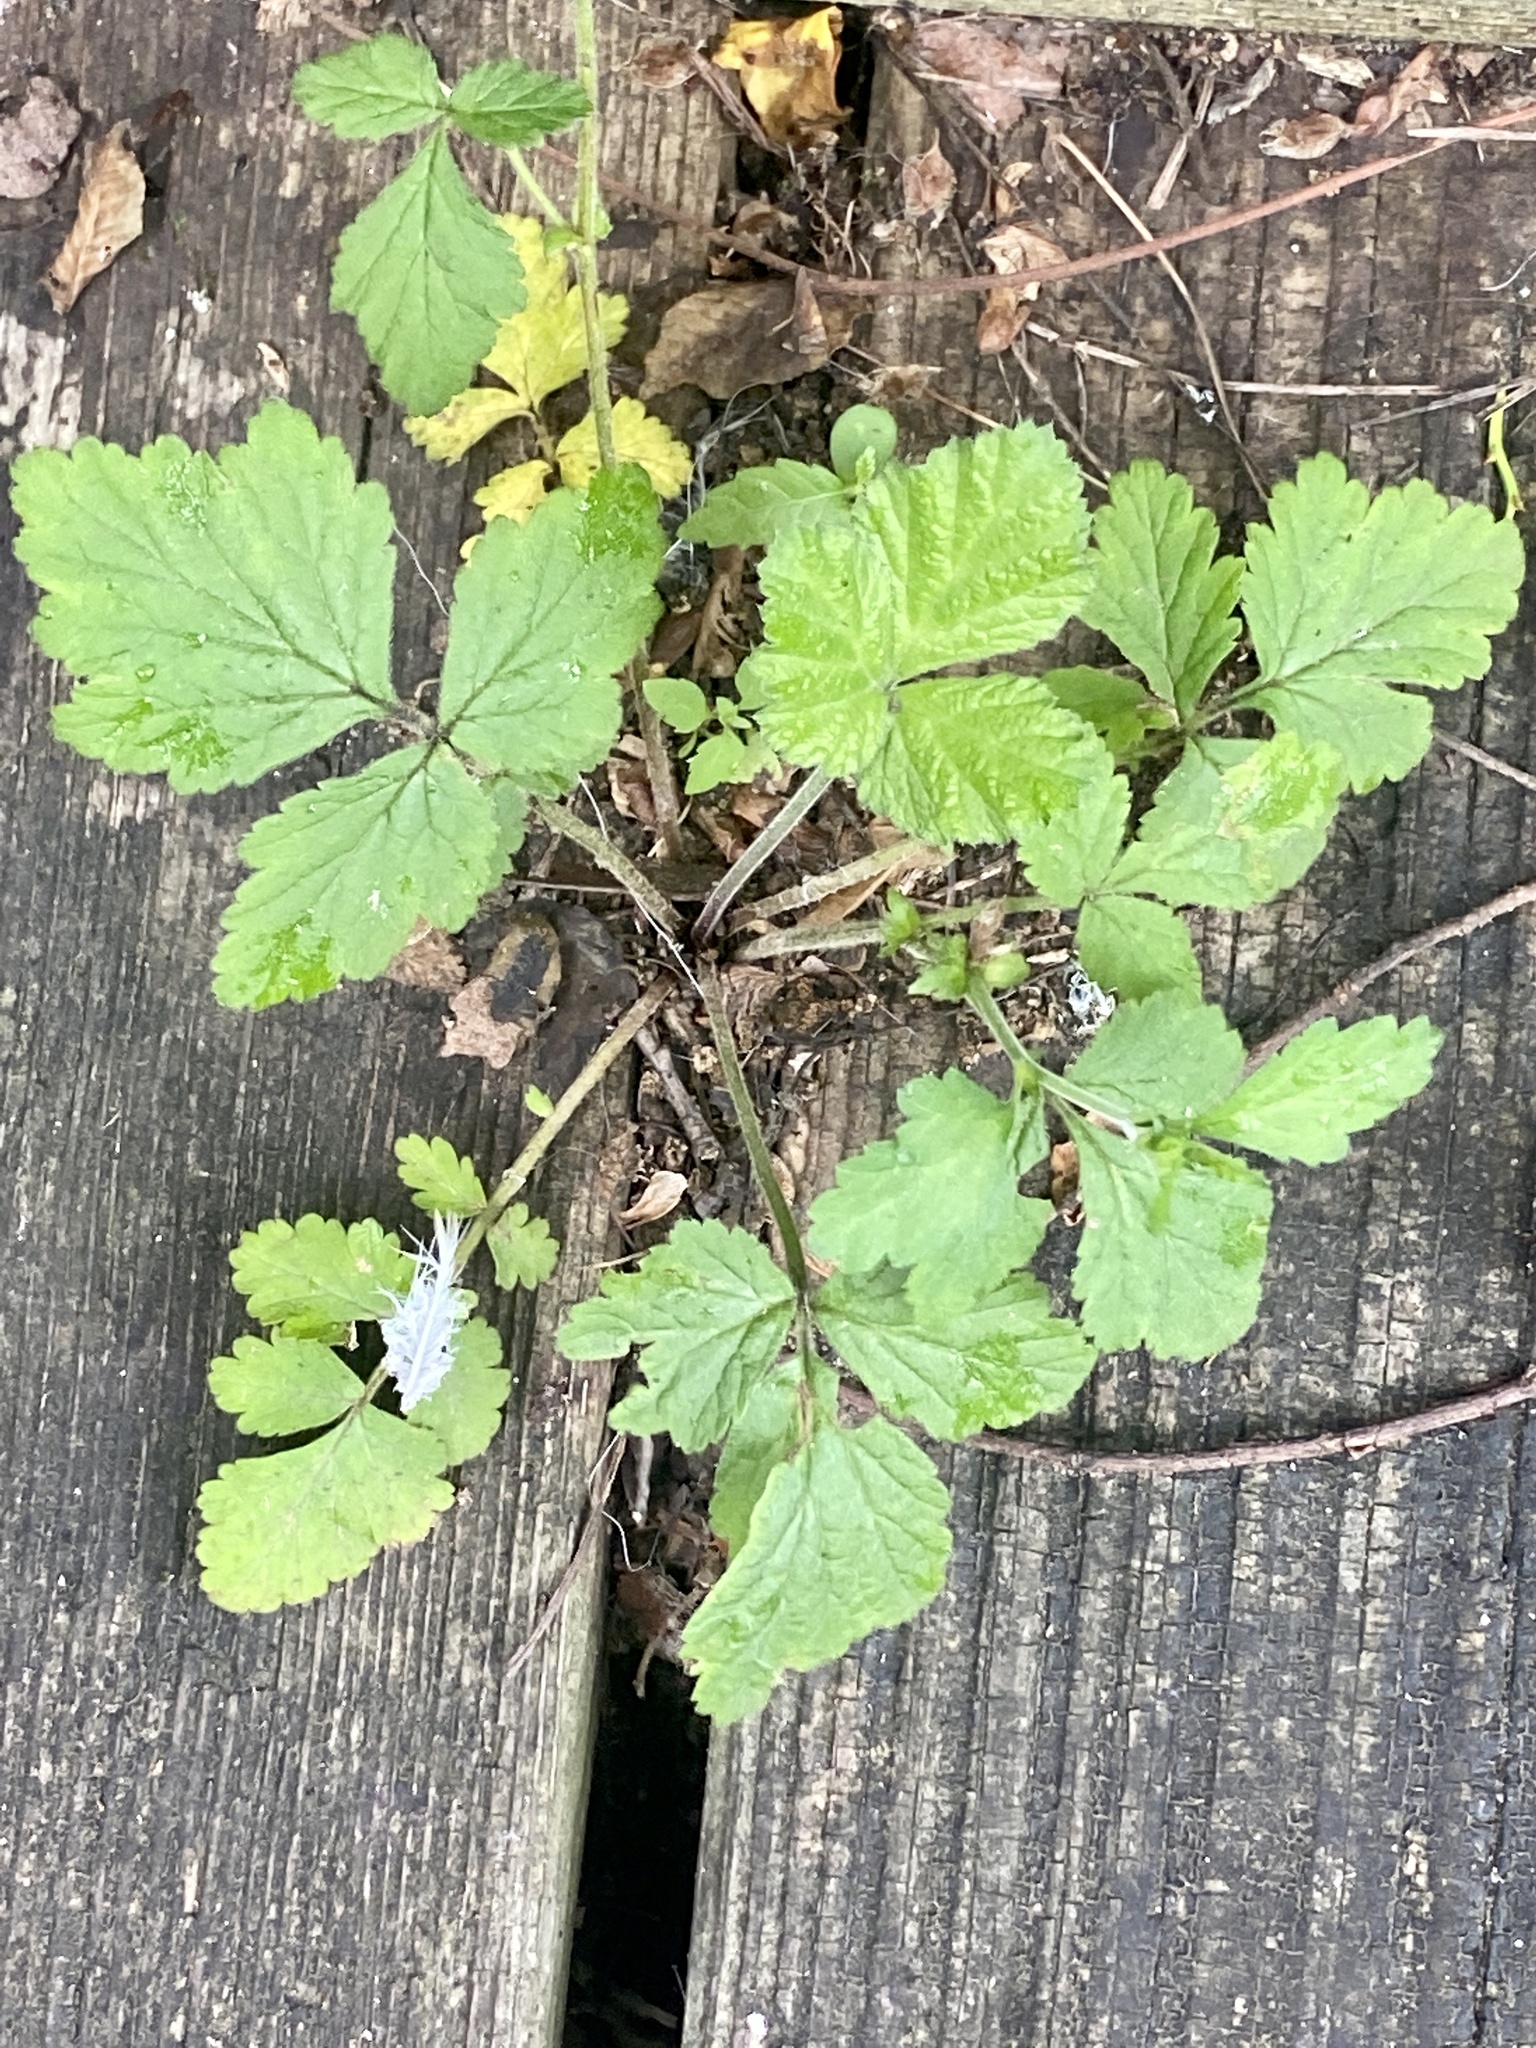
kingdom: Plantae
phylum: Tracheophyta
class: Magnoliopsida
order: Rosales
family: Rosaceae
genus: Geum
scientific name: Geum canadense
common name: White avens
